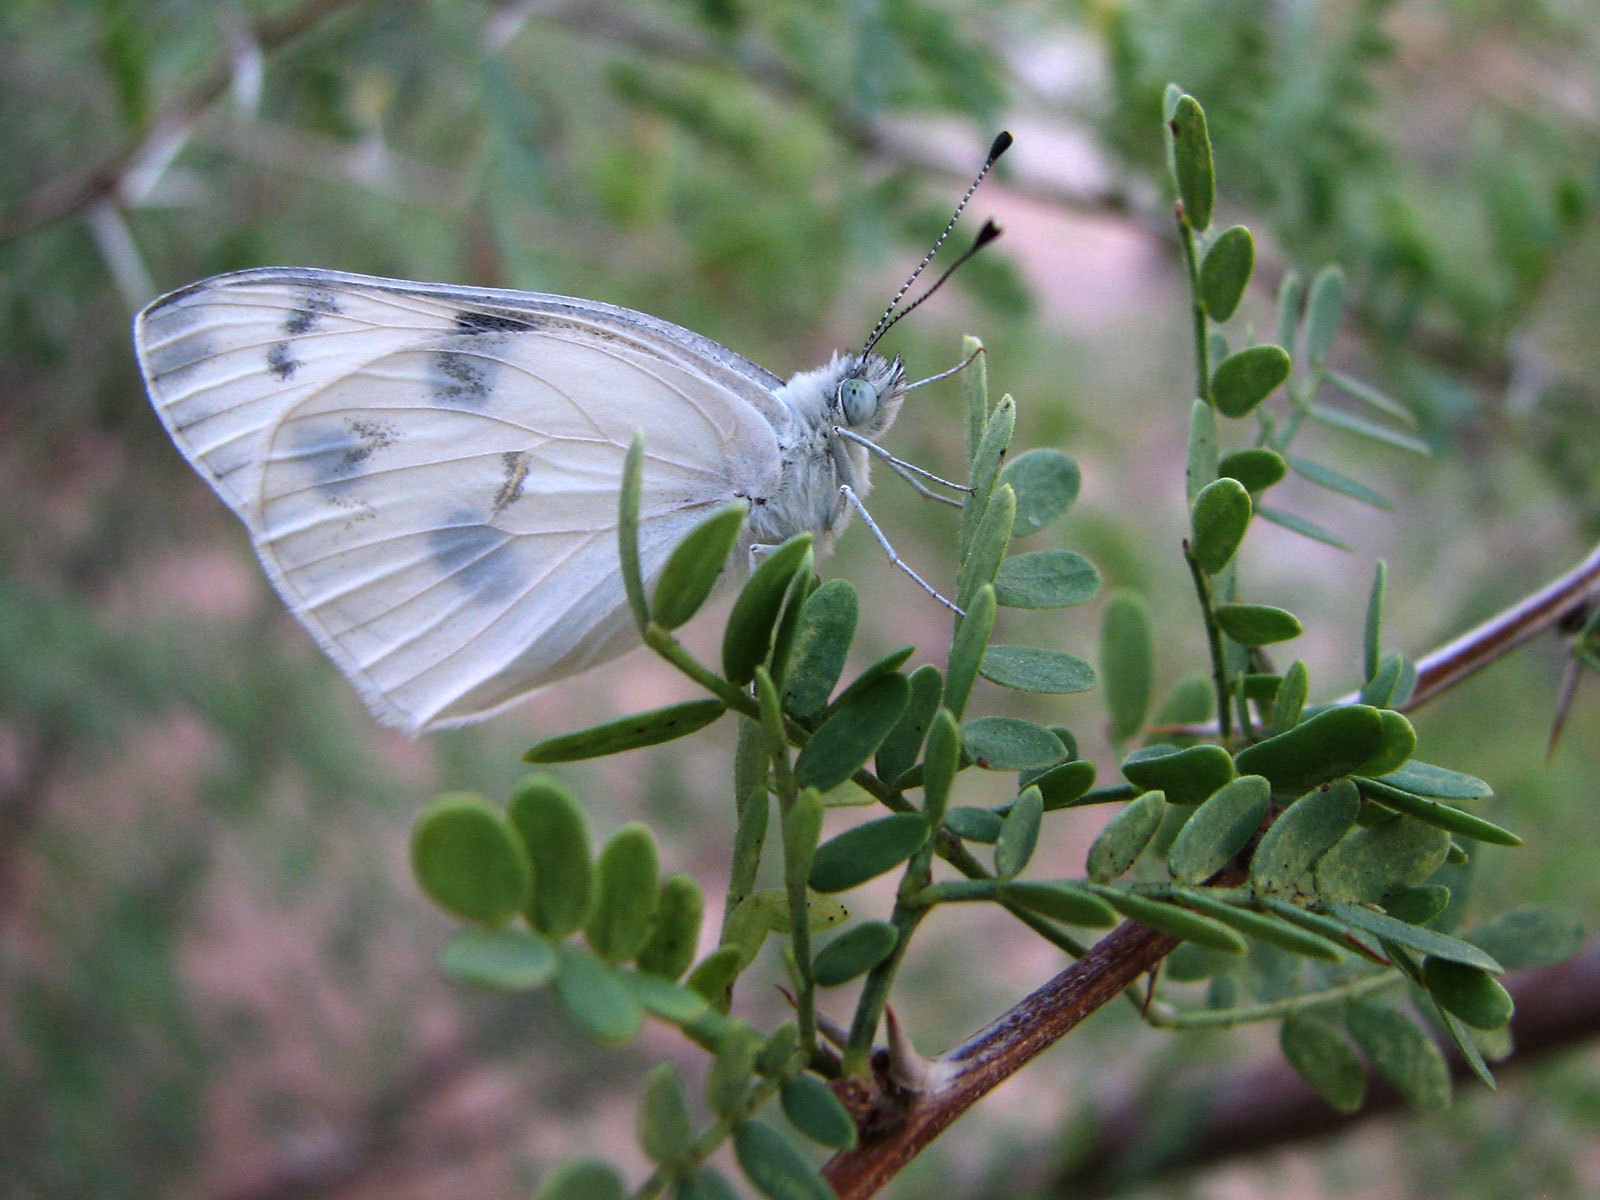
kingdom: Animalia
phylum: Arthropoda
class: Insecta
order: Lepidoptera
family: Pieridae
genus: Pontia
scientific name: Pontia protodice
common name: Checkered white
